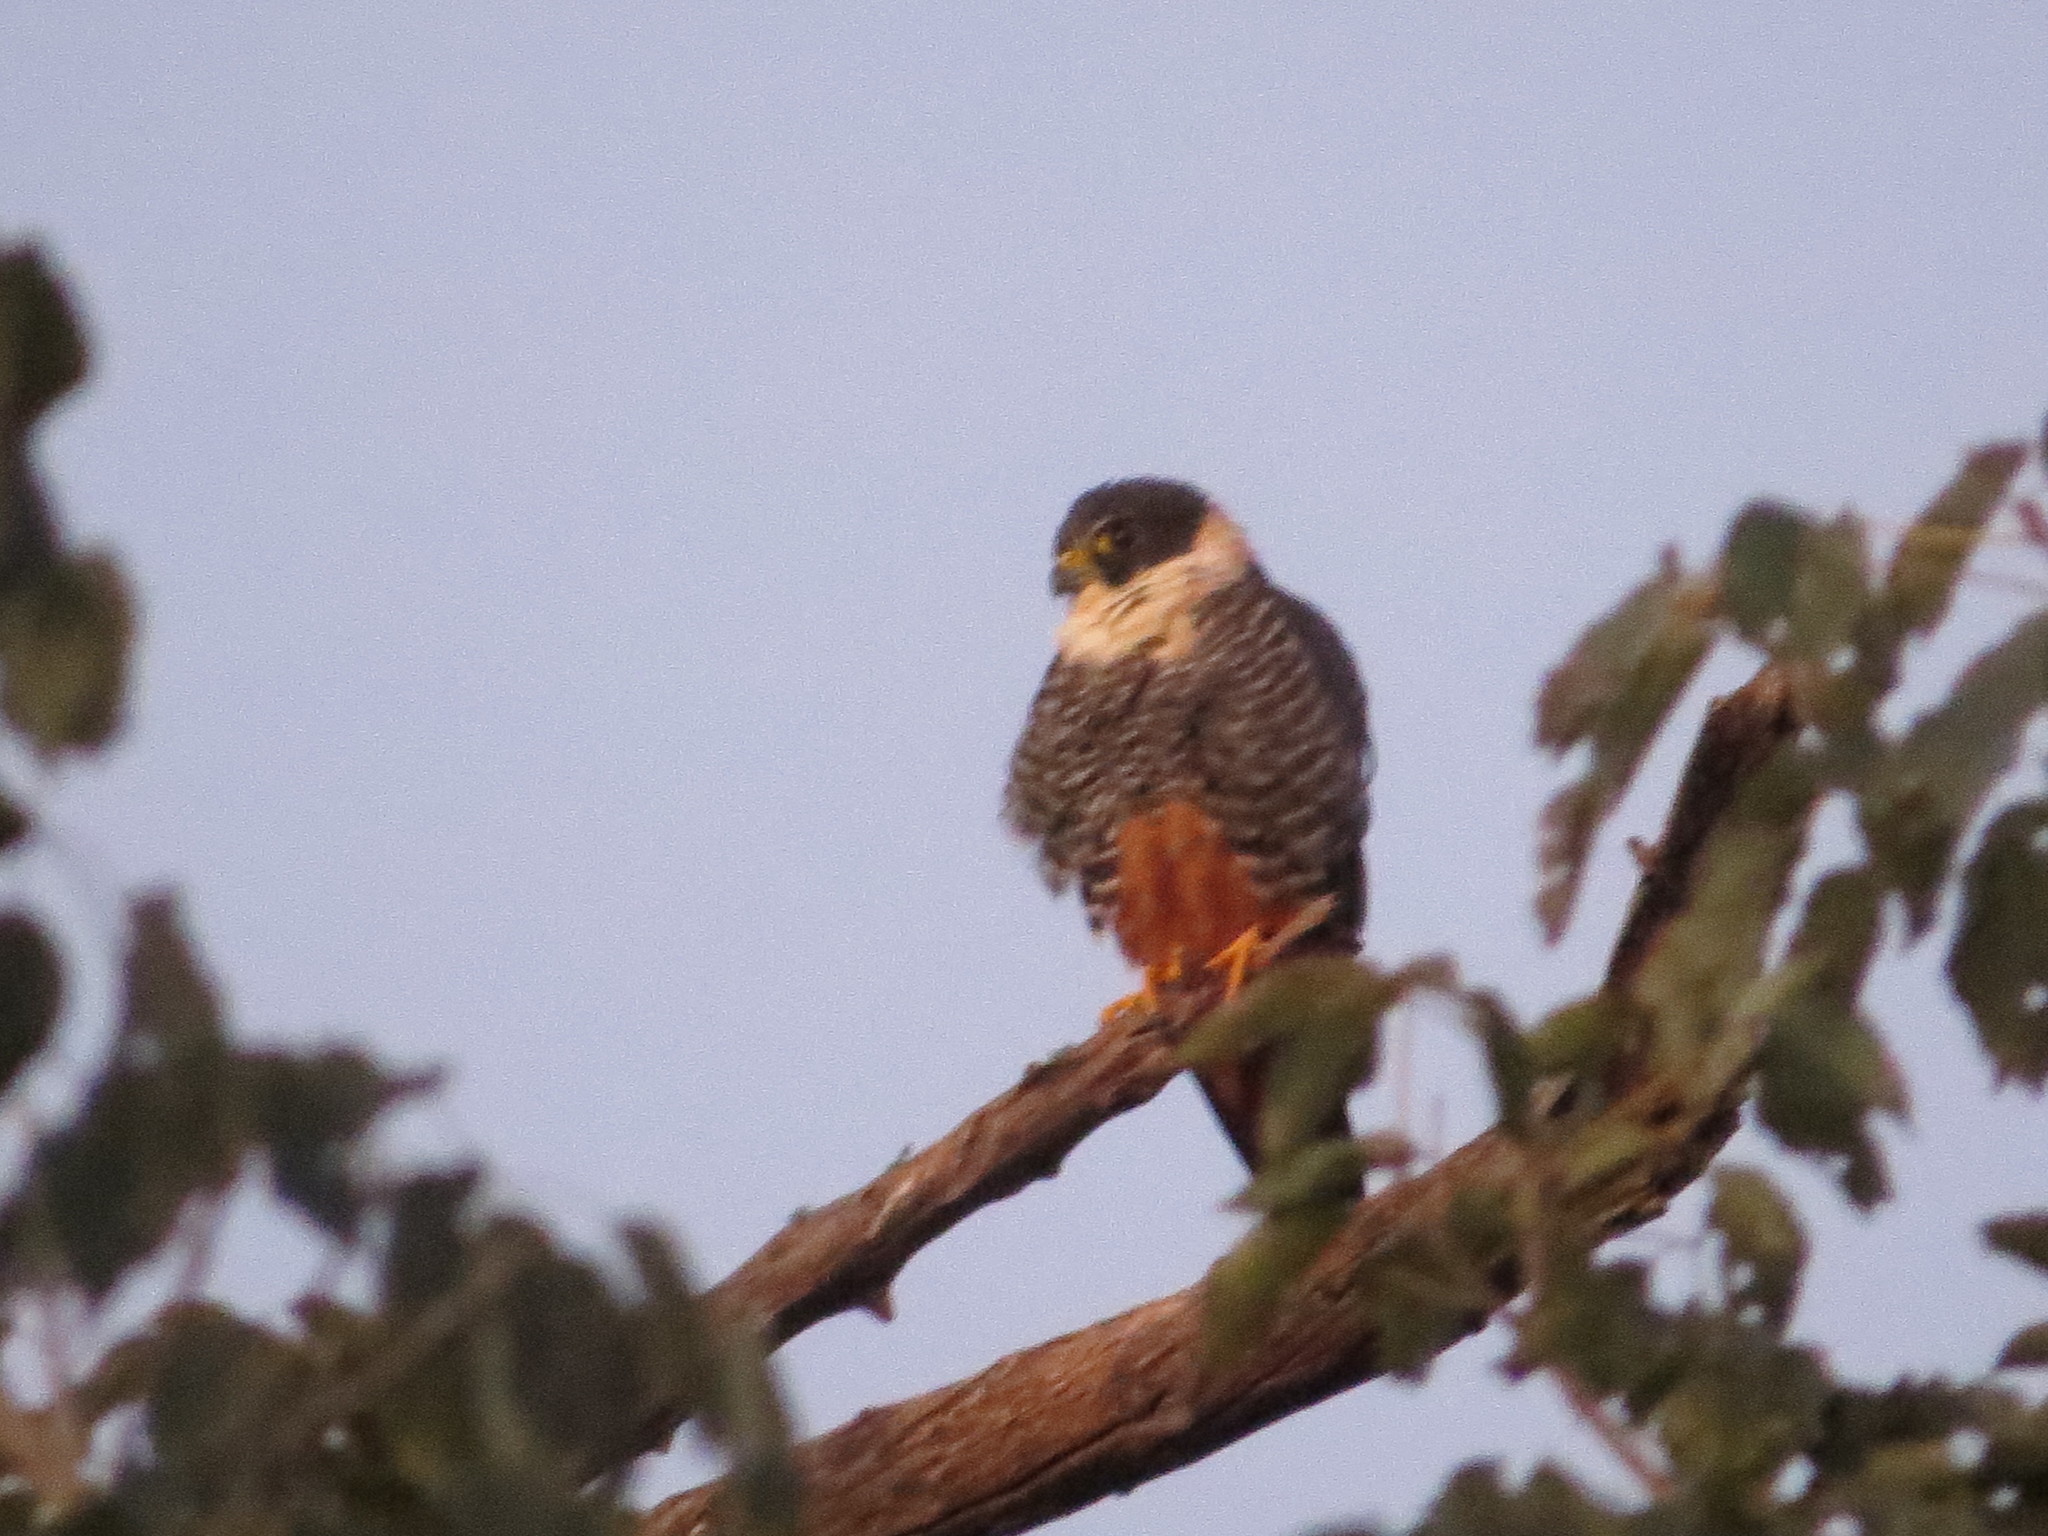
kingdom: Animalia
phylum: Chordata
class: Aves
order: Falconiformes
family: Falconidae
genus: Falco
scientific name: Falco rufigularis
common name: Bat falcon
